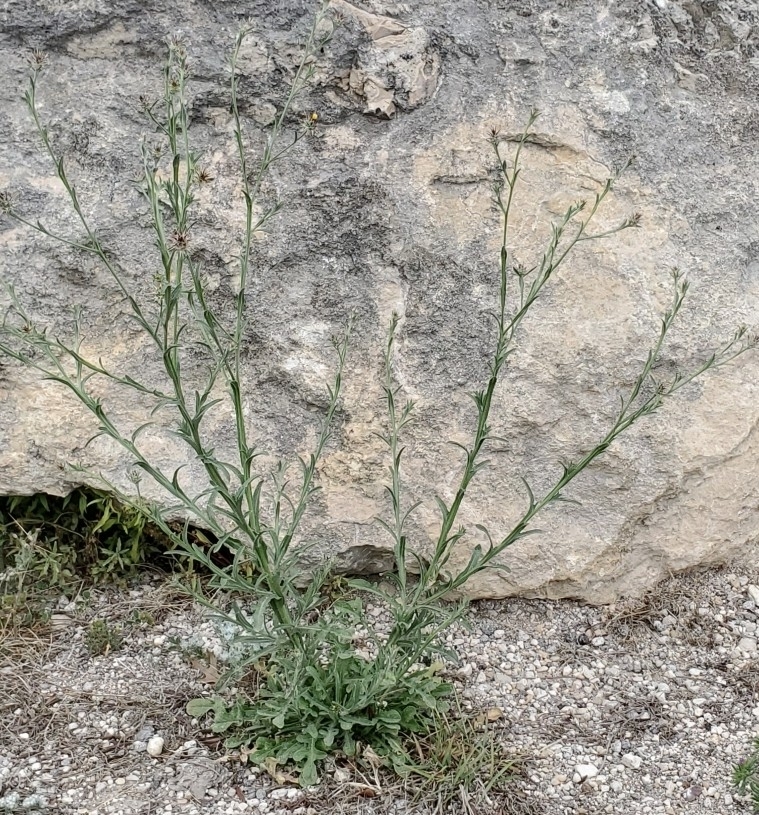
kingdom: Plantae
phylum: Tracheophyta
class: Magnoliopsida
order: Asterales
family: Asteraceae
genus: Centaurea
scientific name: Centaurea melitensis
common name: Maltese star-thistle
